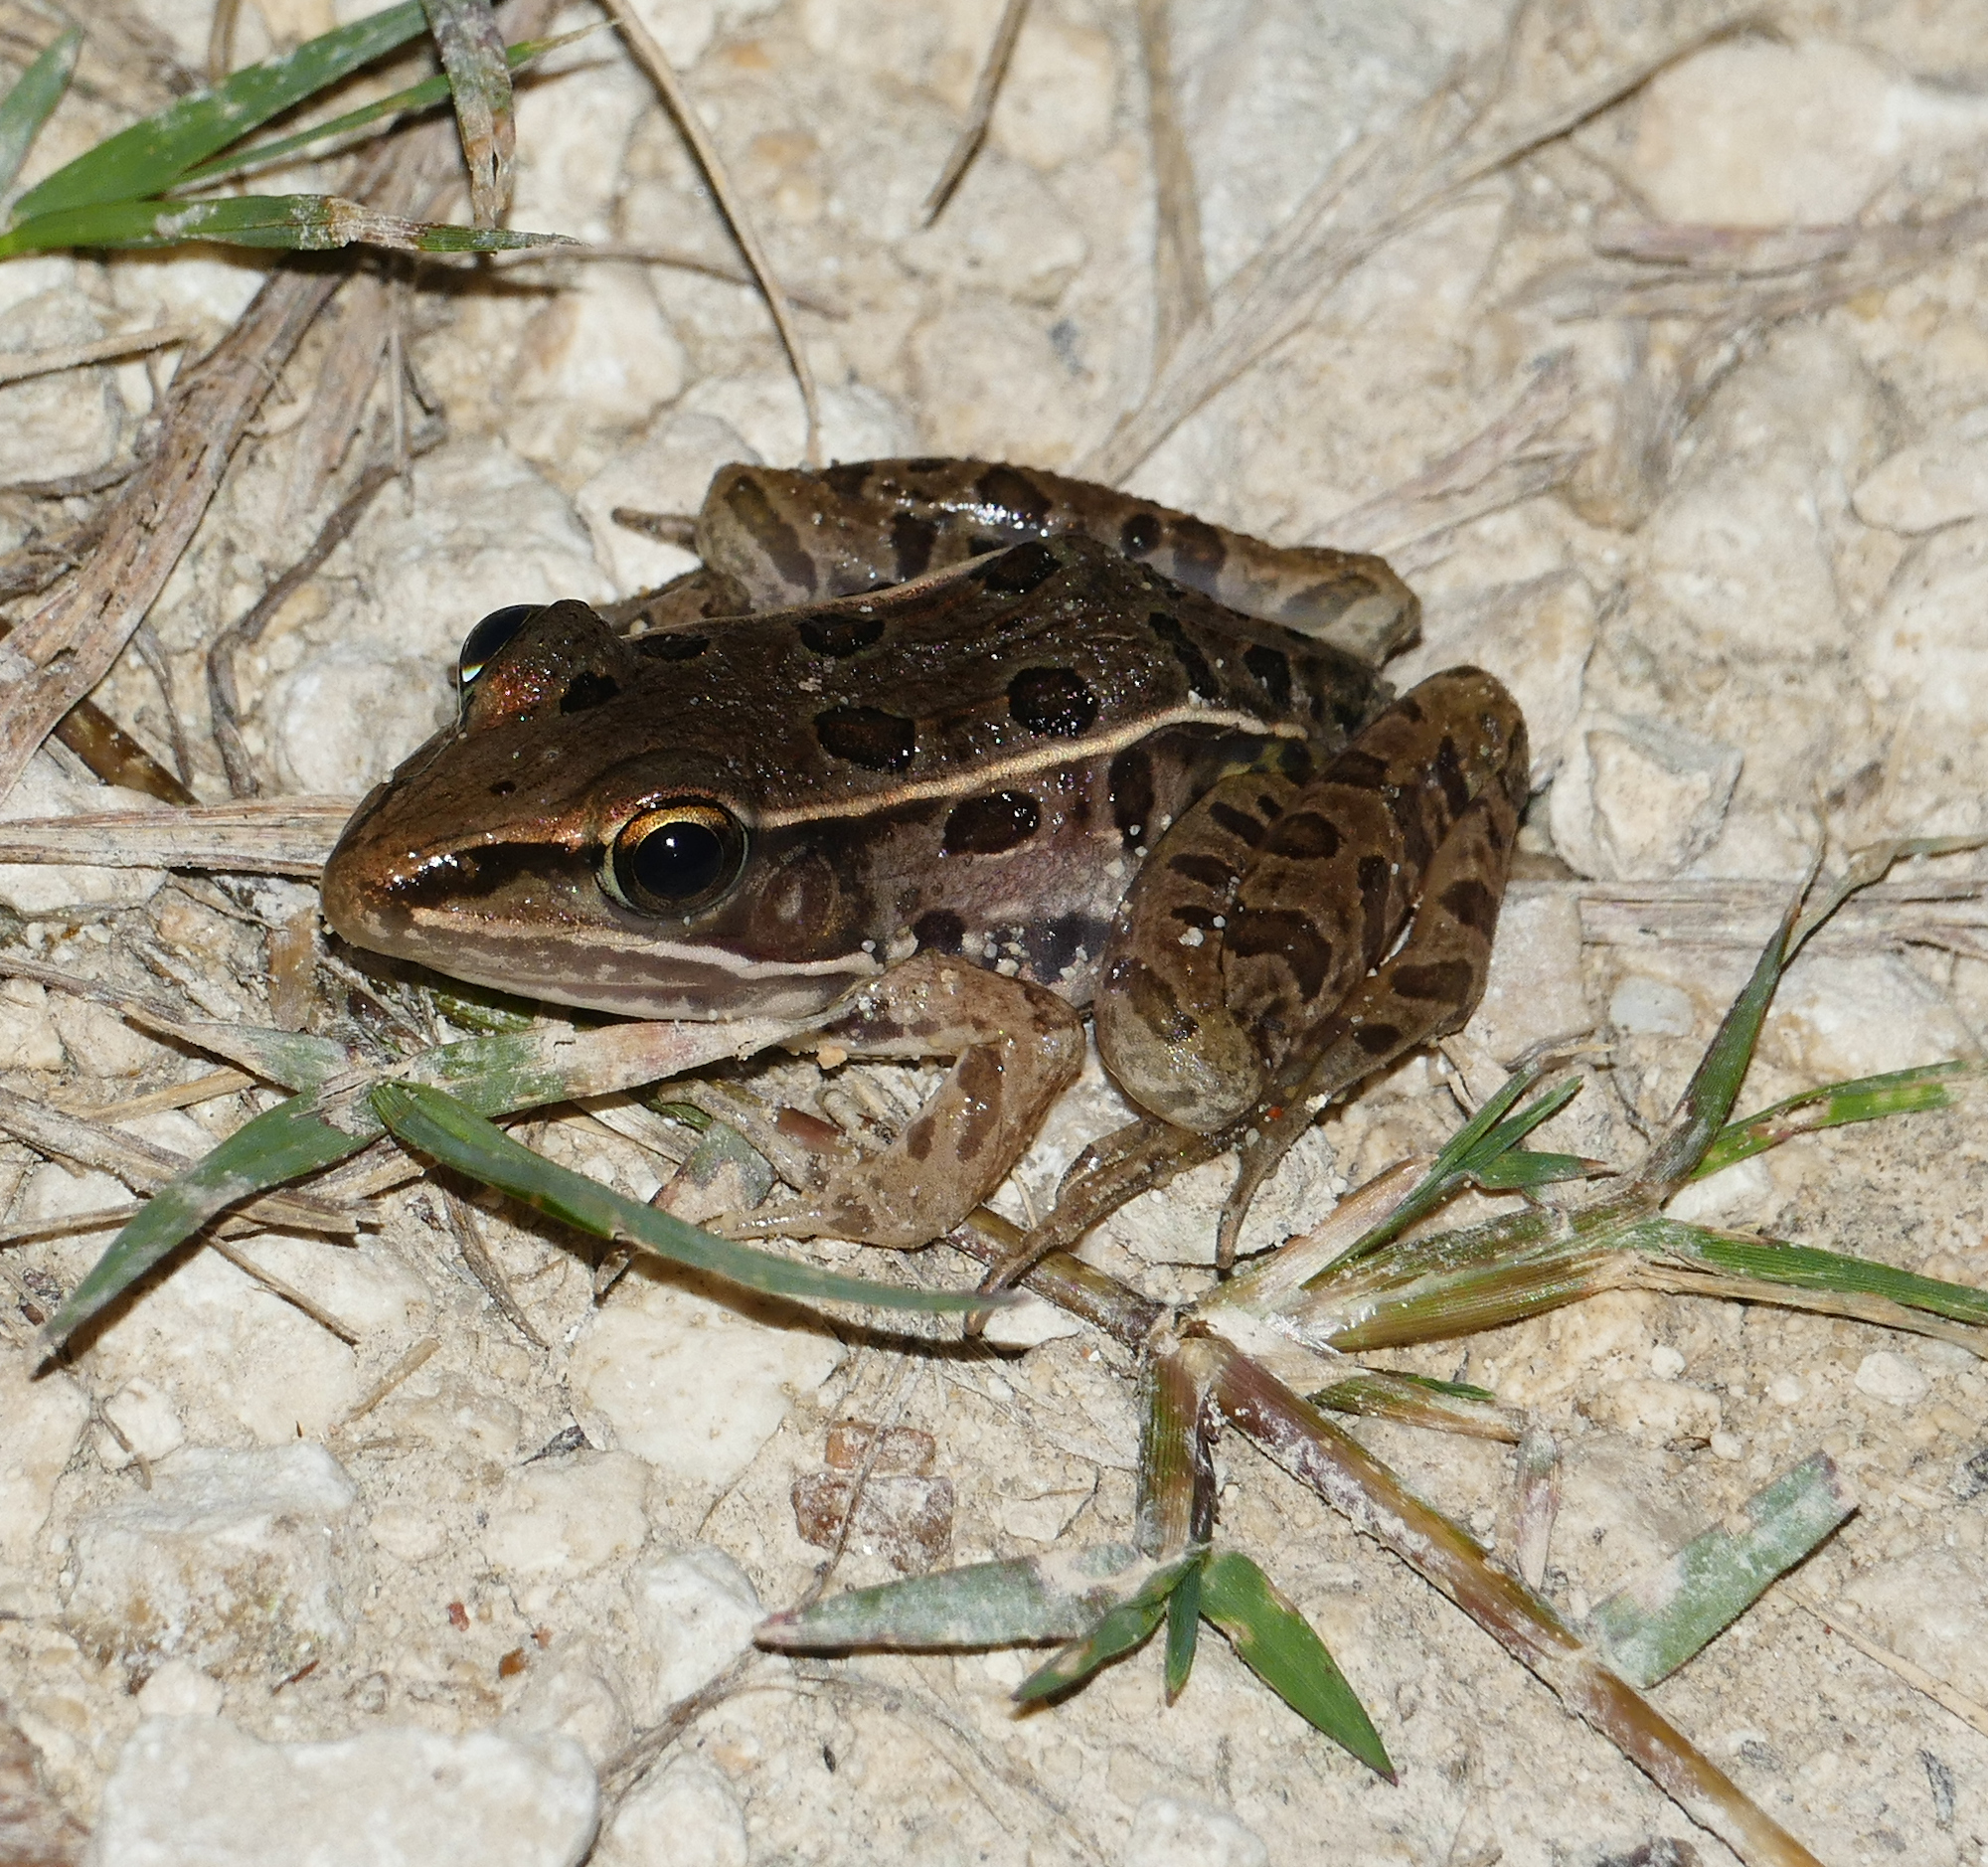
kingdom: Animalia
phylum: Chordata
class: Amphibia
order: Anura
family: Ranidae
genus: Lithobates
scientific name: Lithobates sphenocephalus
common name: Southern leopard frog
